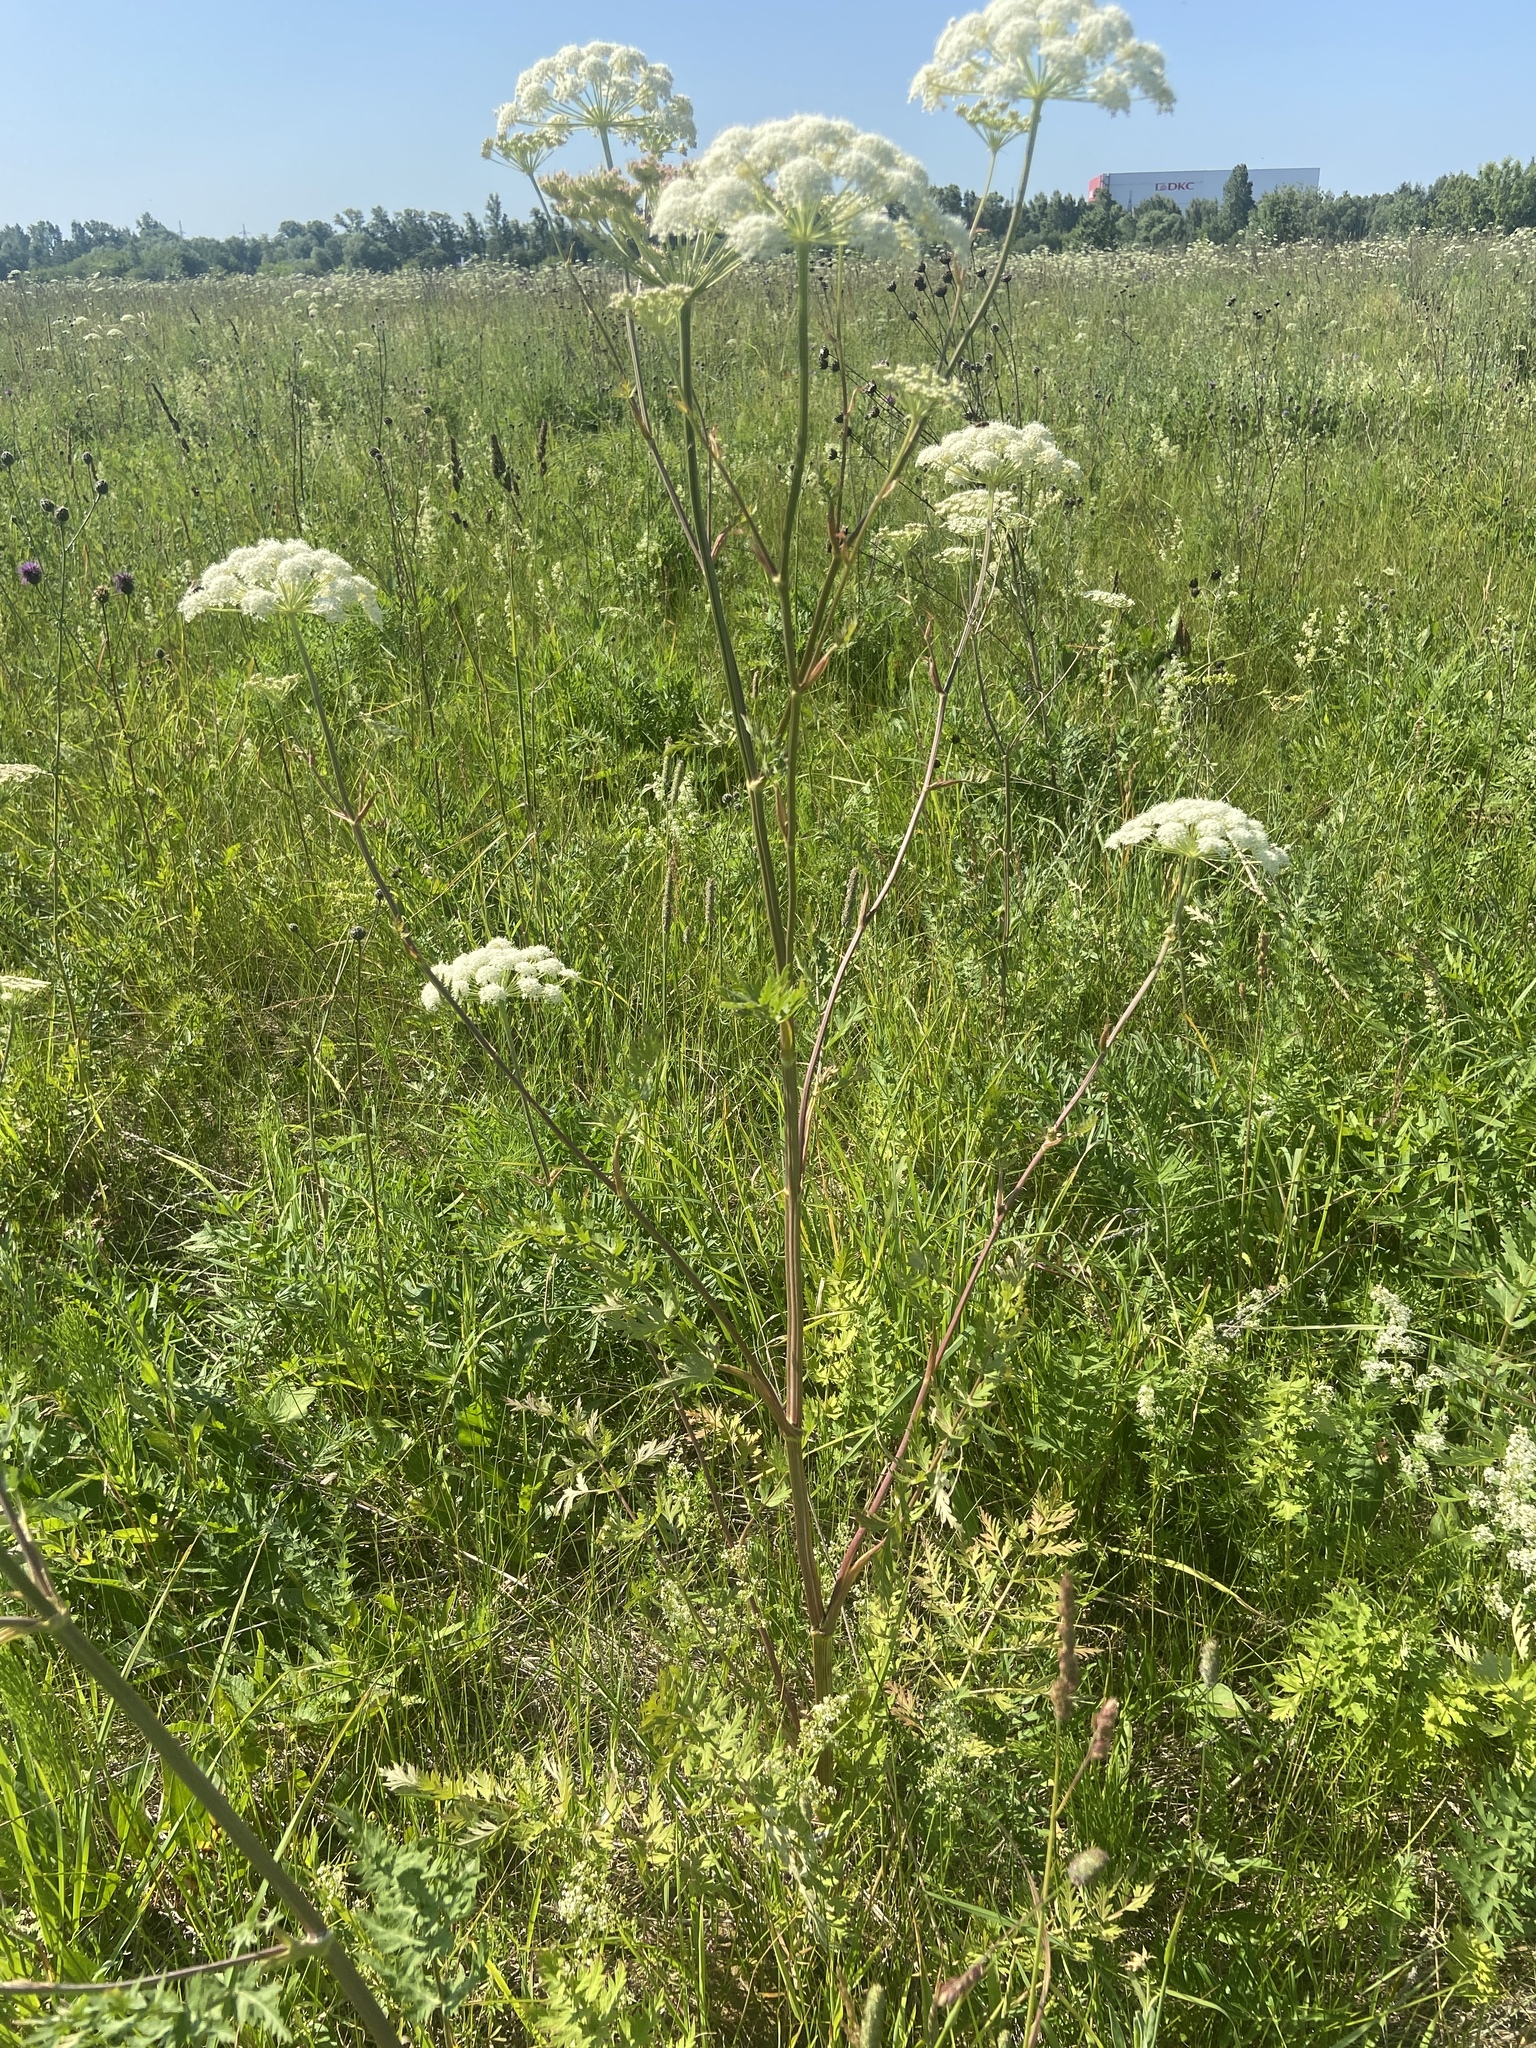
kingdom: Plantae
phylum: Tracheophyta
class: Magnoliopsida
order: Apiales
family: Apiaceae
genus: Seseli
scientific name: Seseli libanotis
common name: Mooncarrot
